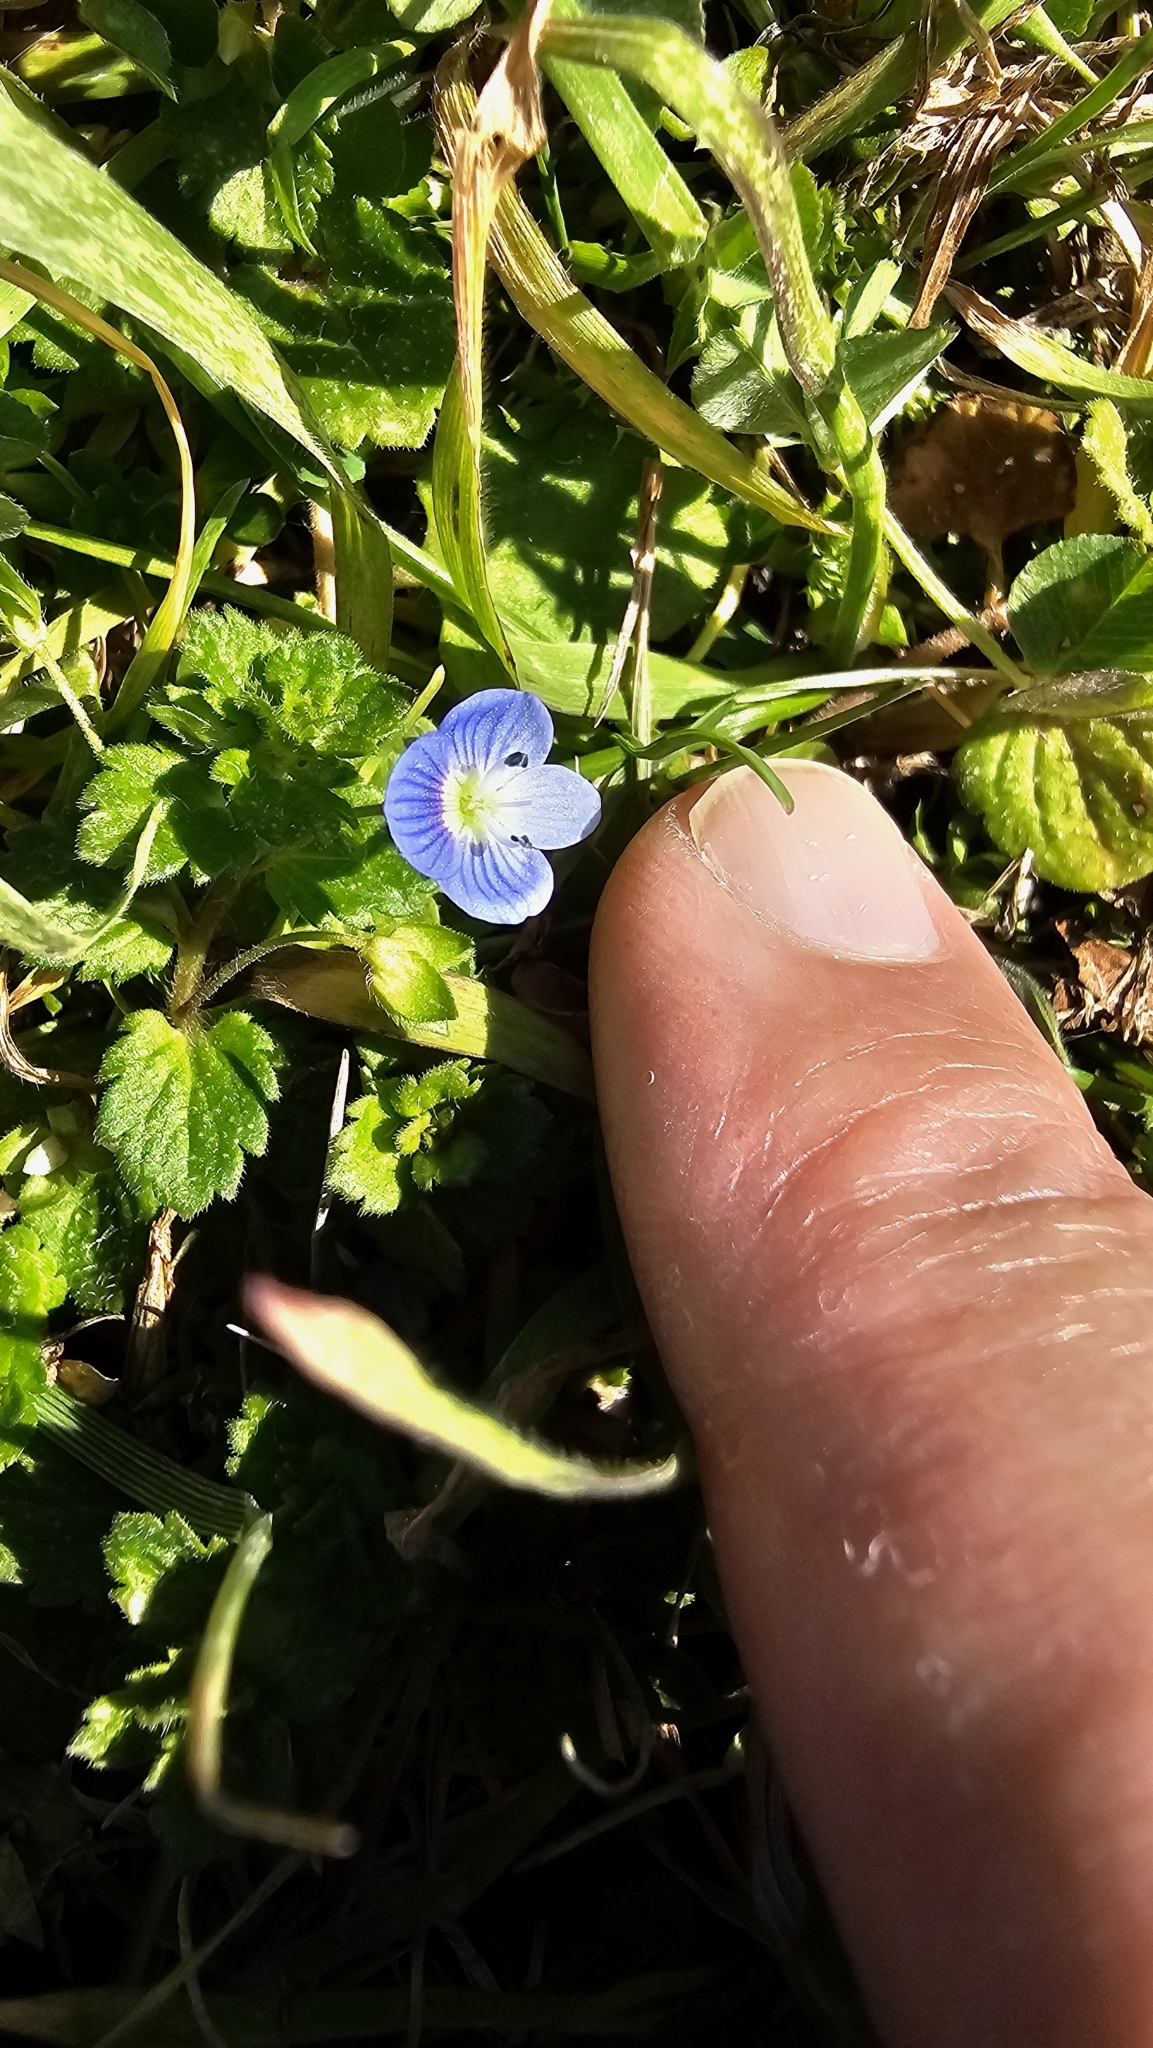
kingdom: Plantae
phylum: Tracheophyta
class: Magnoliopsida
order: Lamiales
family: Plantaginaceae
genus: Veronica
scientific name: Veronica persica
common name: Common field-speedwell
